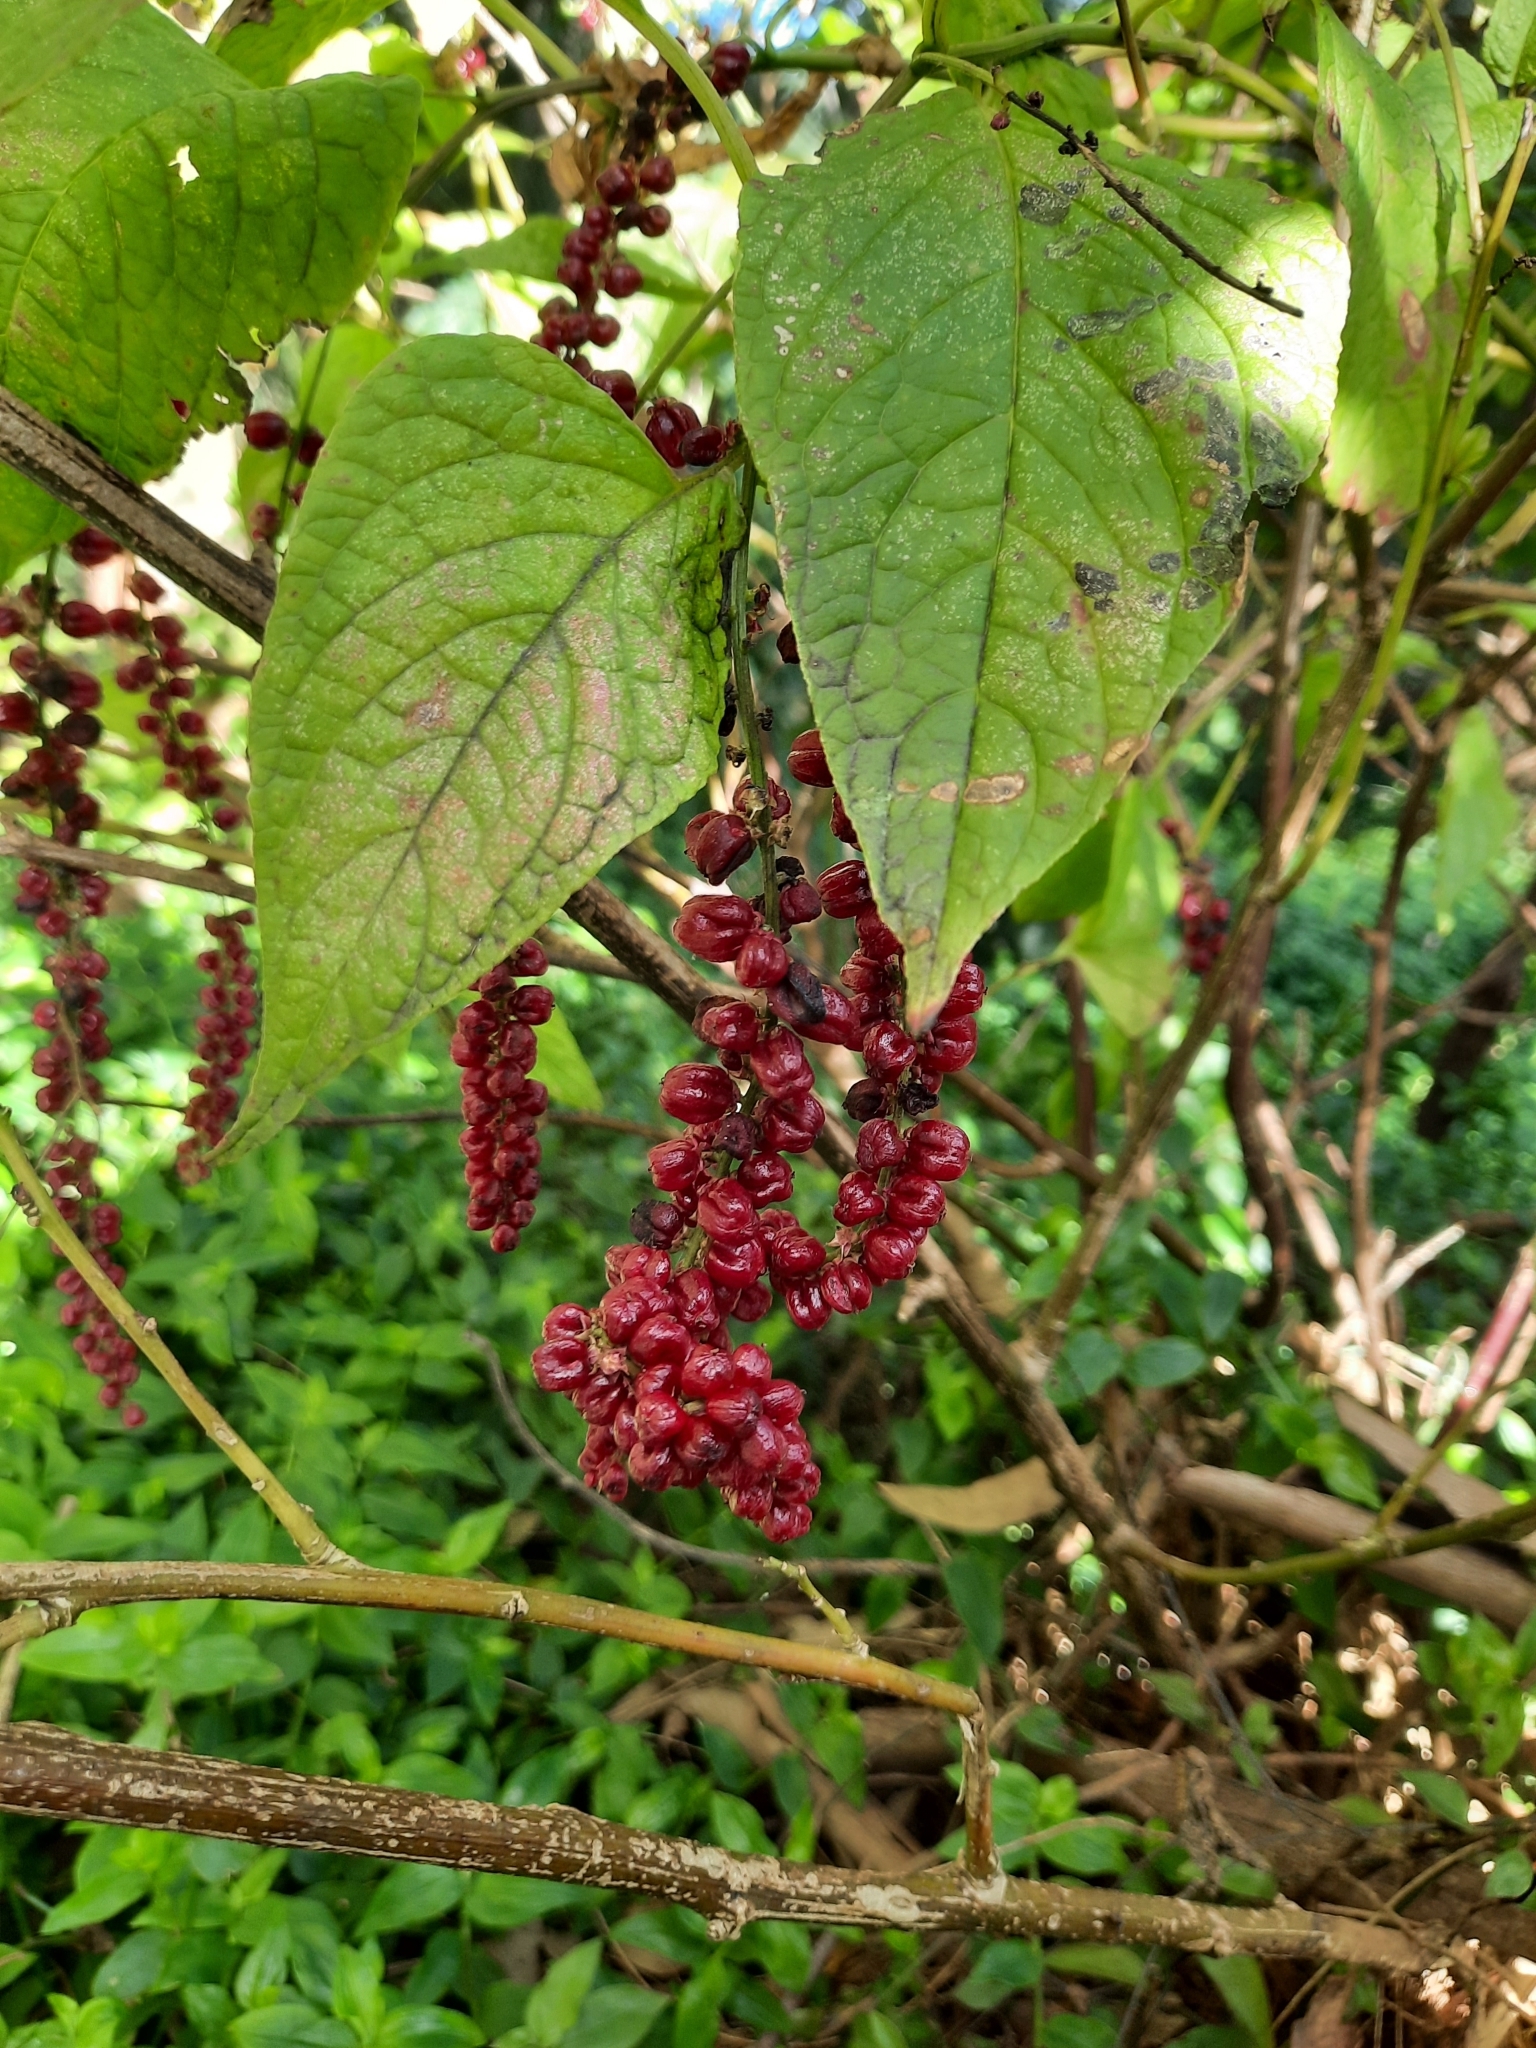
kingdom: Plantae
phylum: Tracheophyta
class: Magnoliopsida
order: Caryophyllales
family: Amaranthaceae
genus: Deeringia
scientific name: Deeringia amaranthoides
